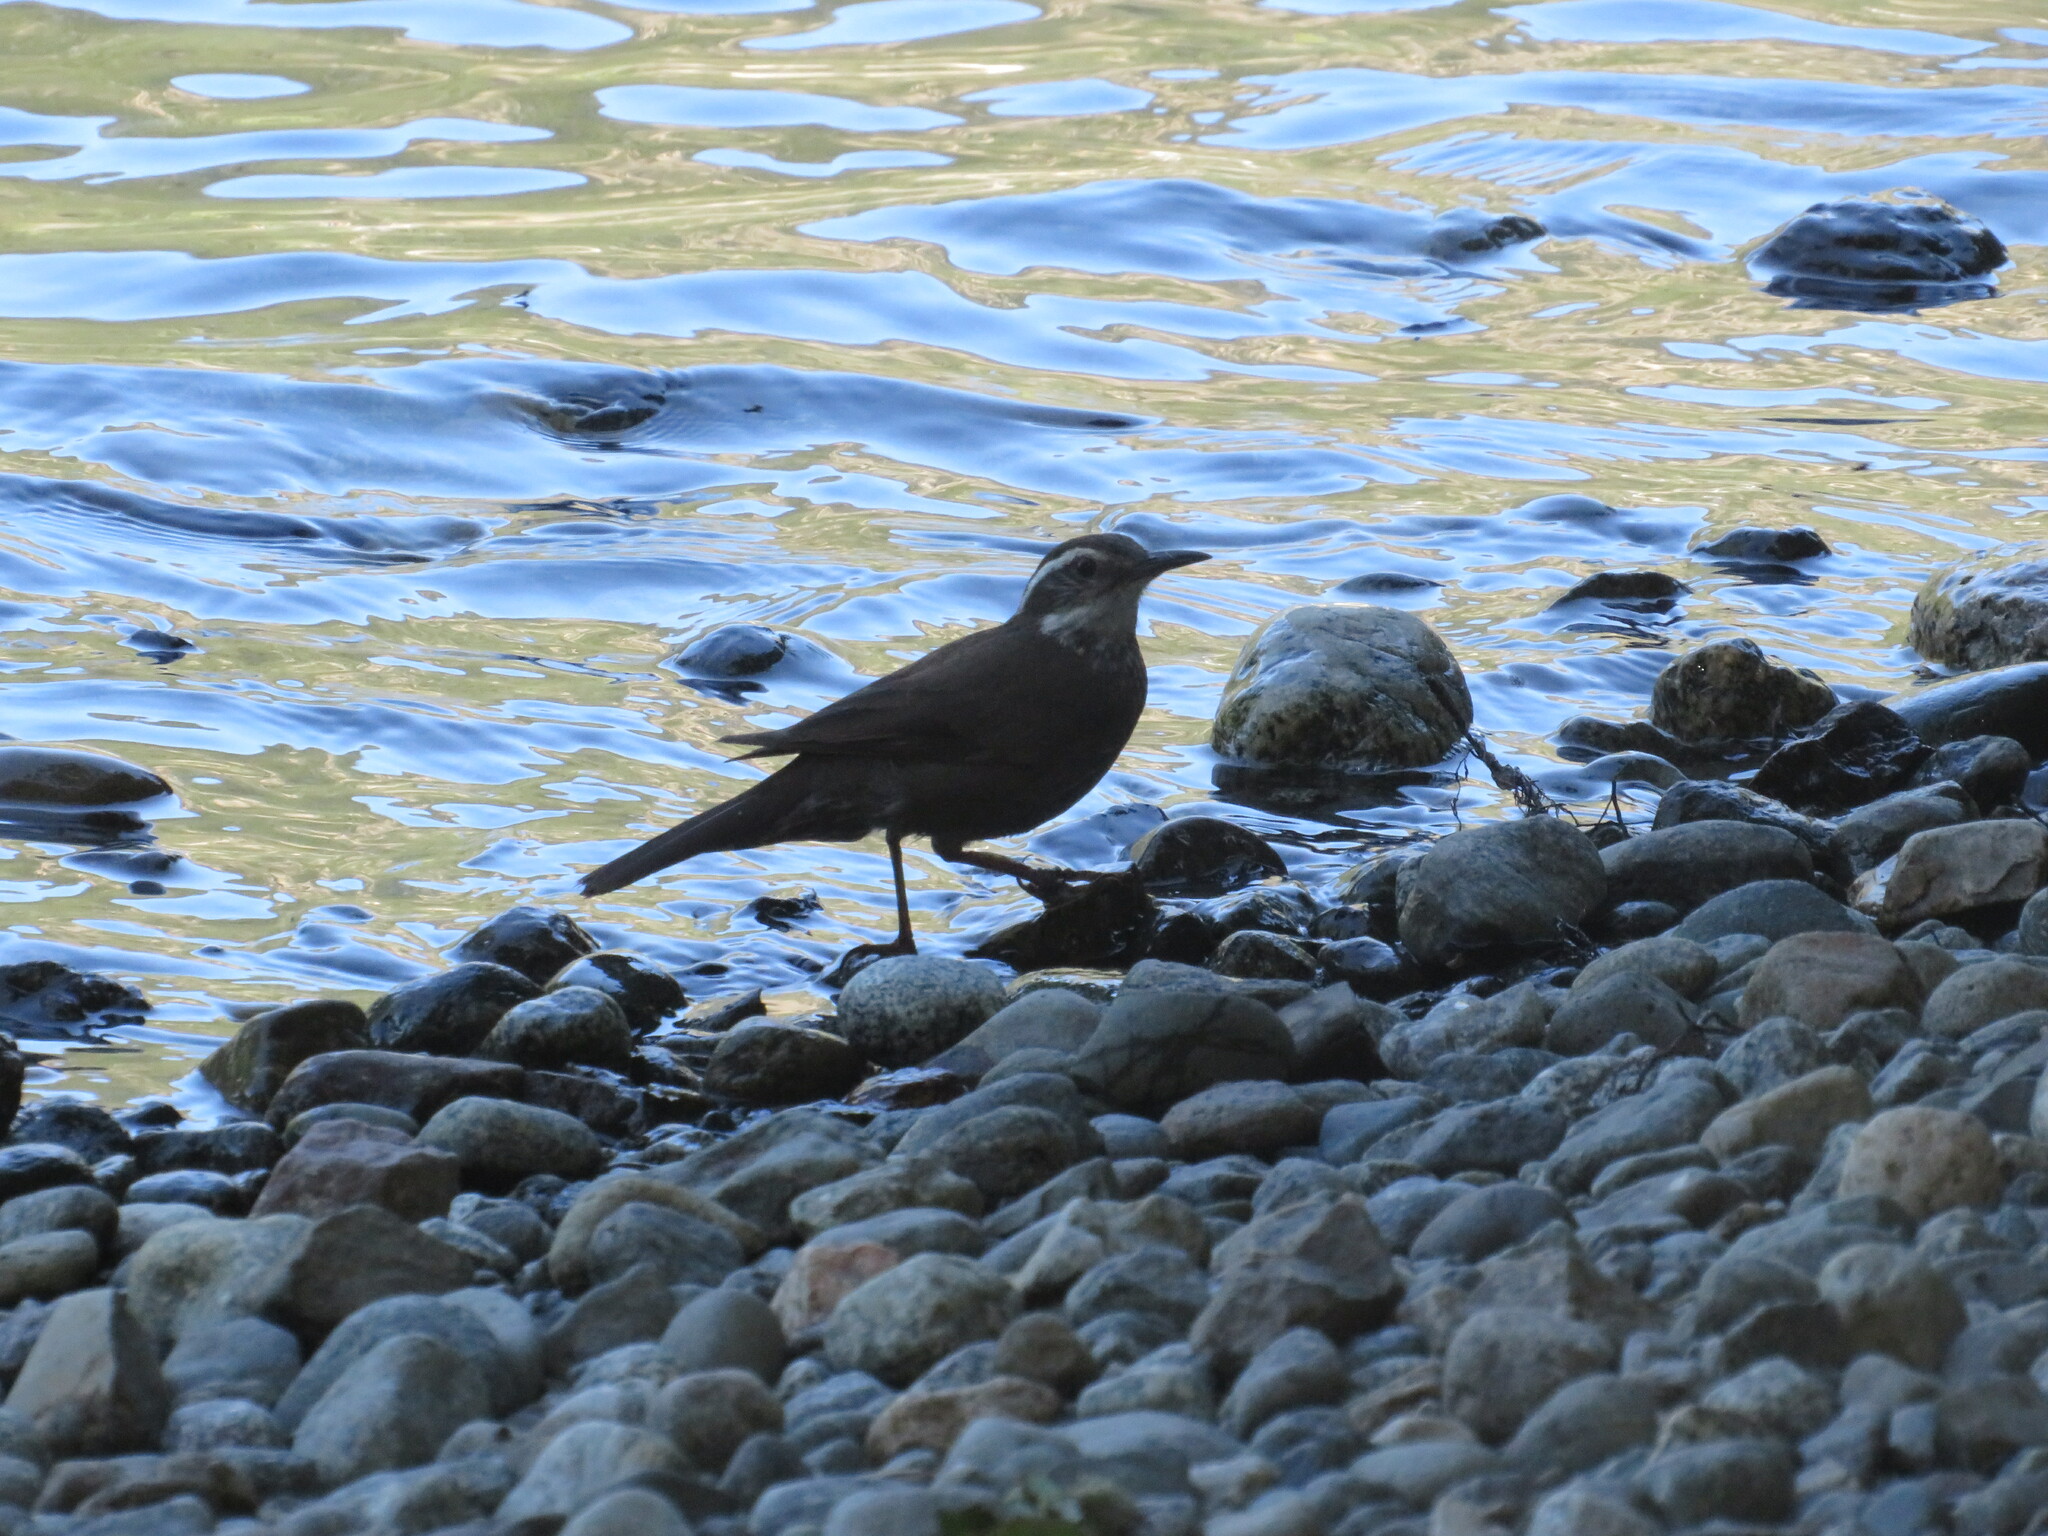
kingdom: Animalia
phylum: Chordata
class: Aves
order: Passeriformes
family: Furnariidae
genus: Cinclodes
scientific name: Cinclodes patagonicus
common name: Dark-bellied cinclodes
